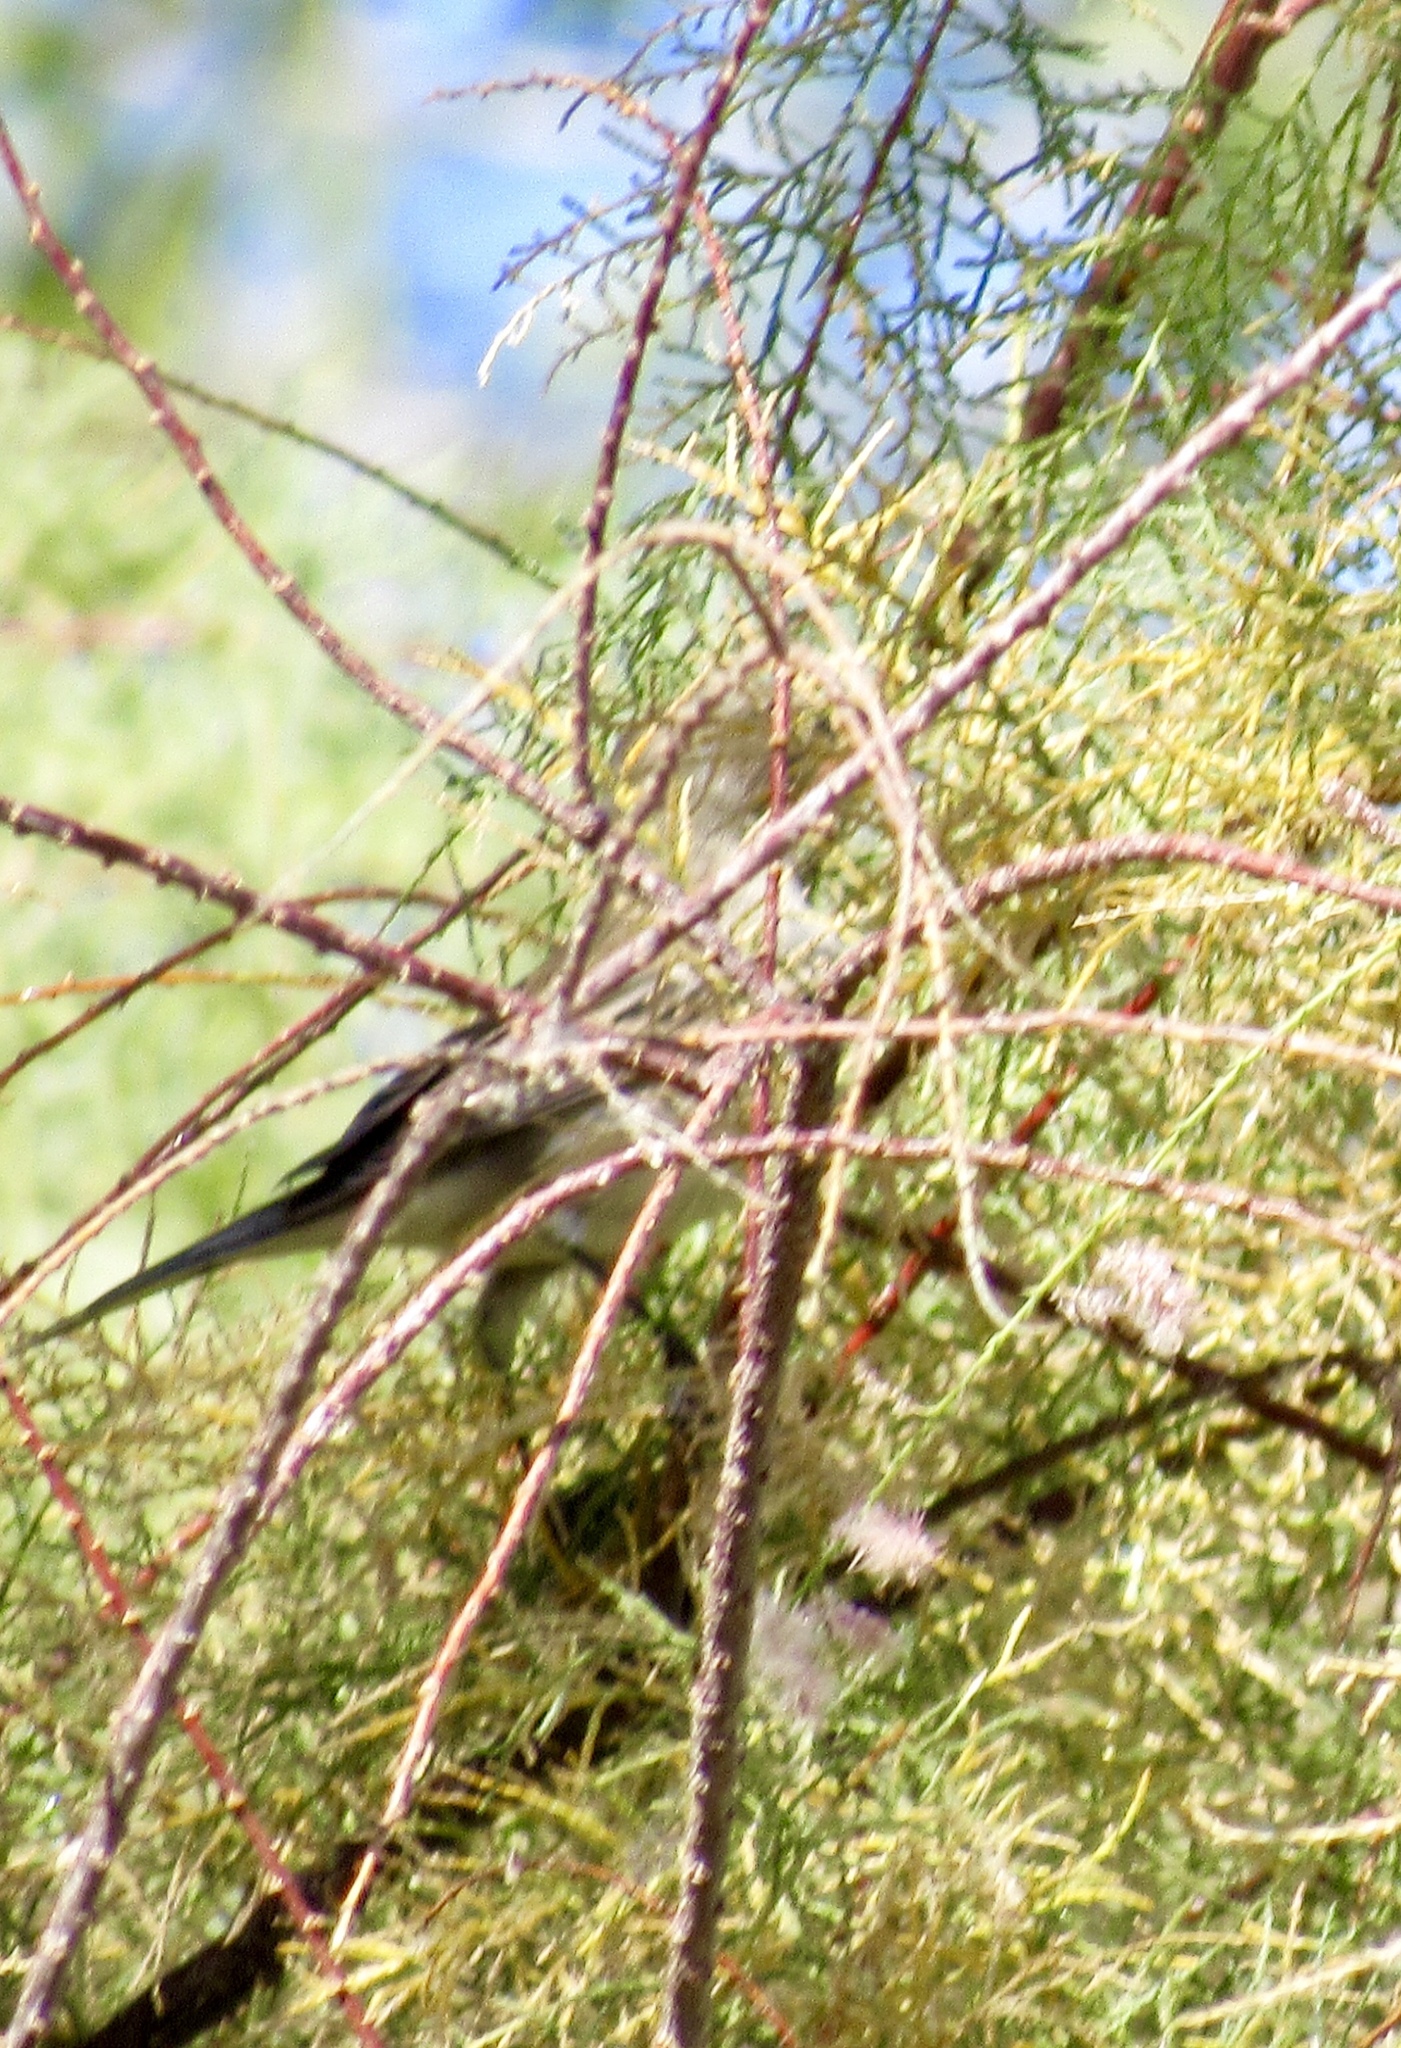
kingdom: Animalia
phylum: Chordata
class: Aves
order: Passeriformes
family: Parulidae
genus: Setophaga
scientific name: Setophaga auduboni
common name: Audubon's warbler
